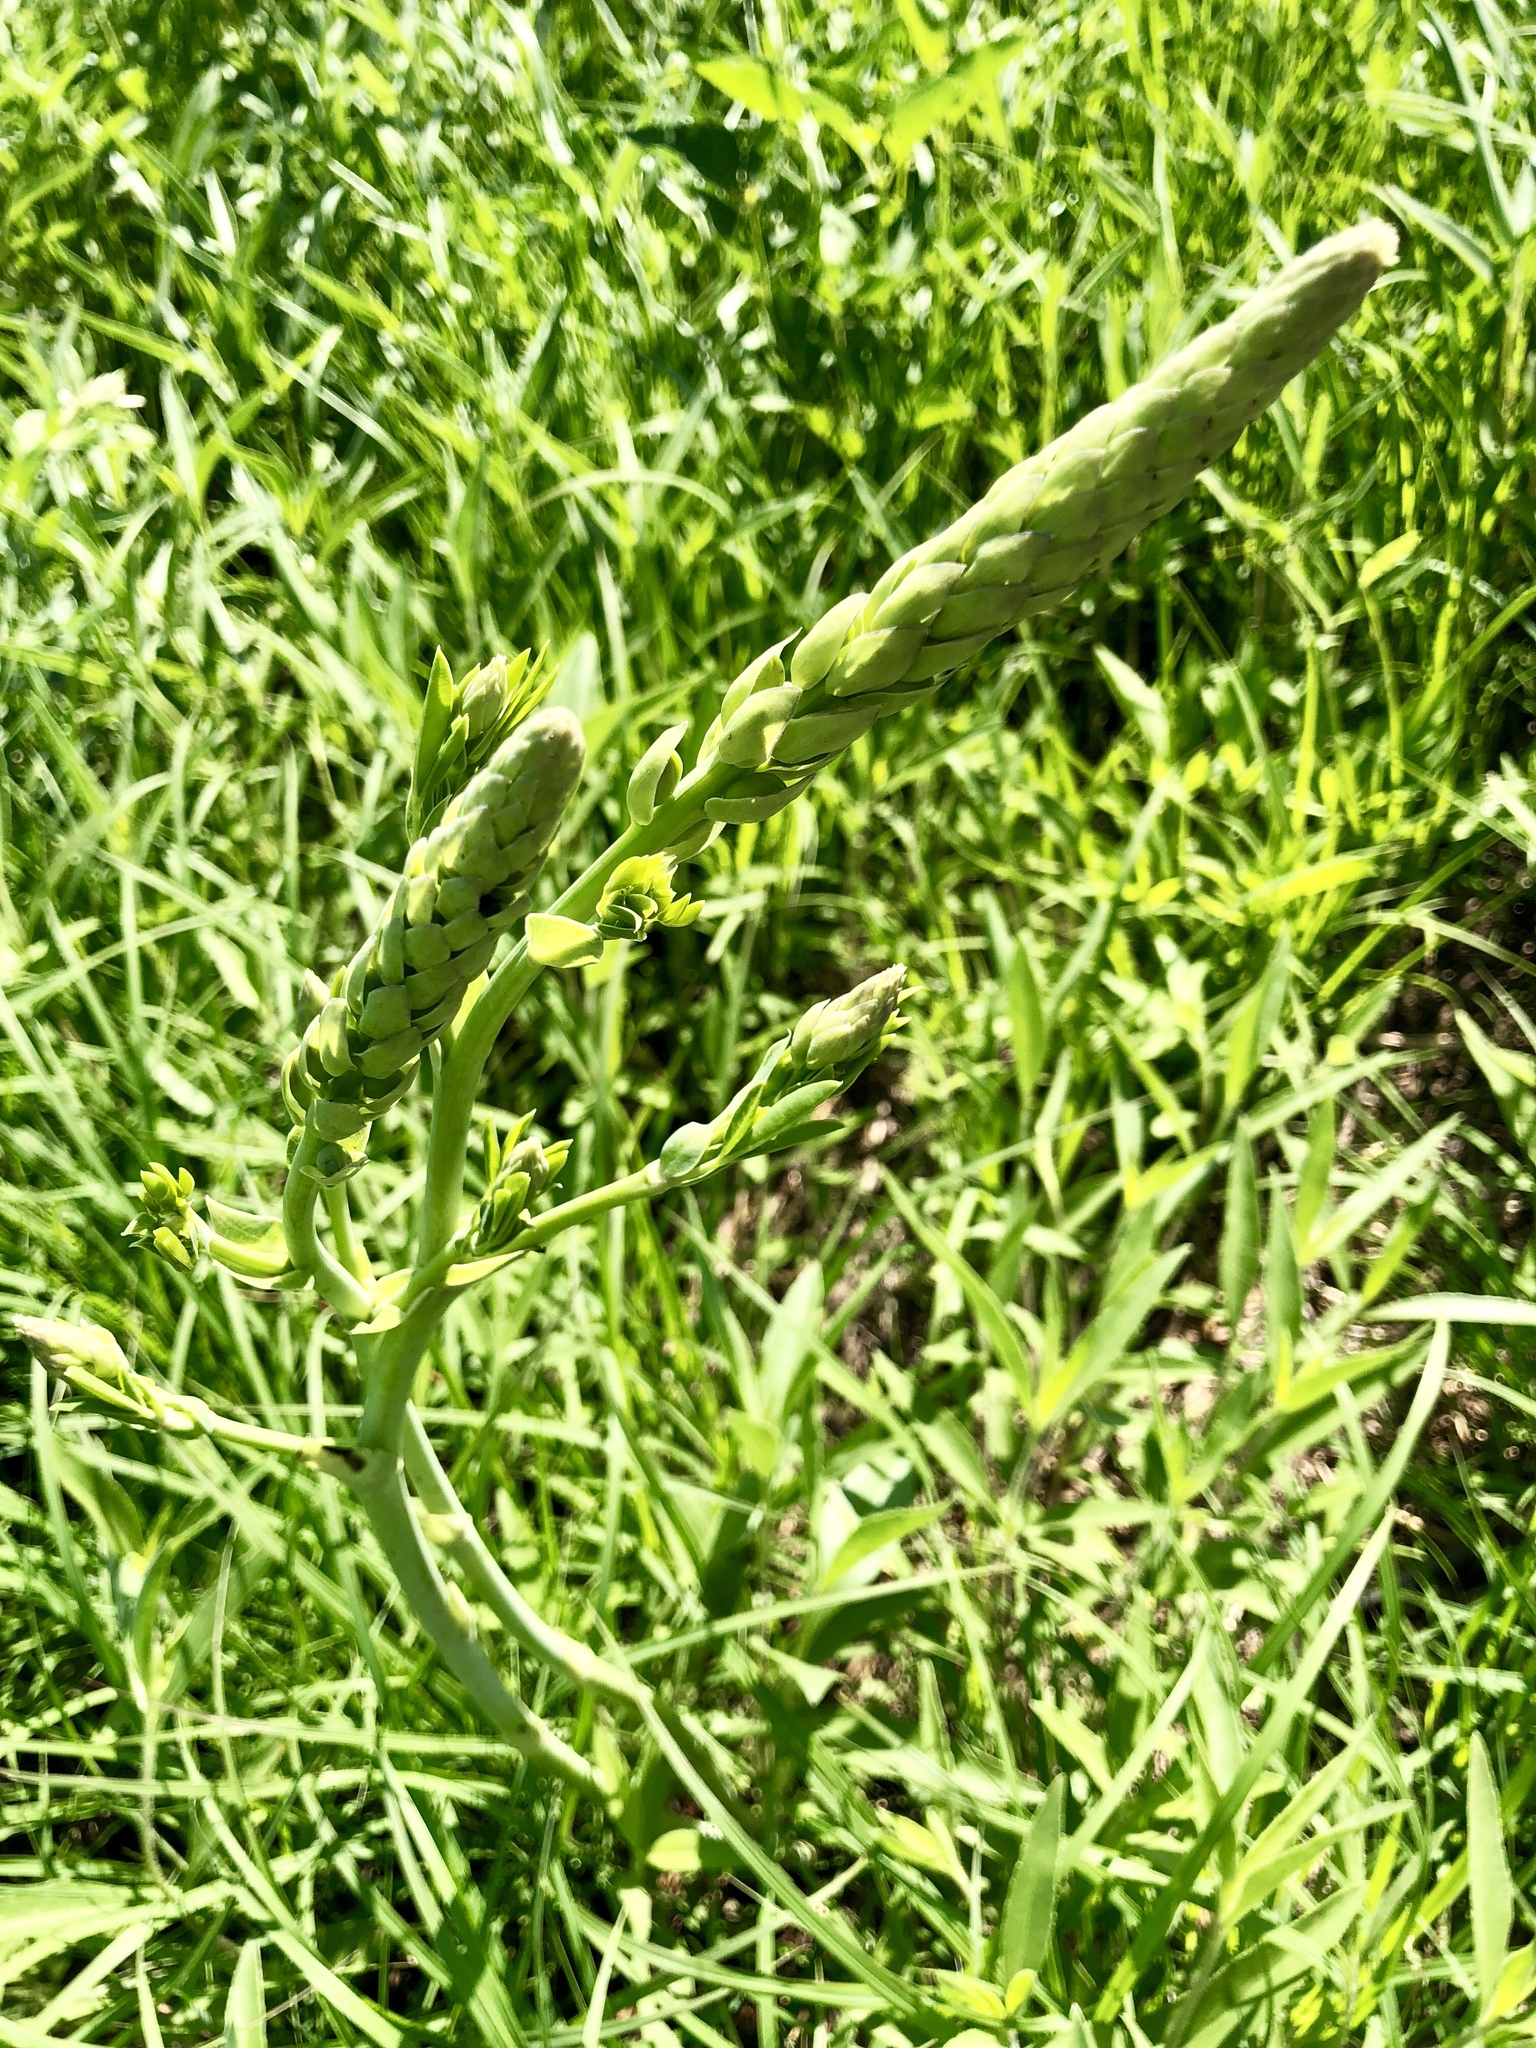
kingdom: Plantae
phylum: Tracheophyta
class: Magnoliopsida
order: Fabales
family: Fabaceae
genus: Baptisia
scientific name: Baptisia alba
